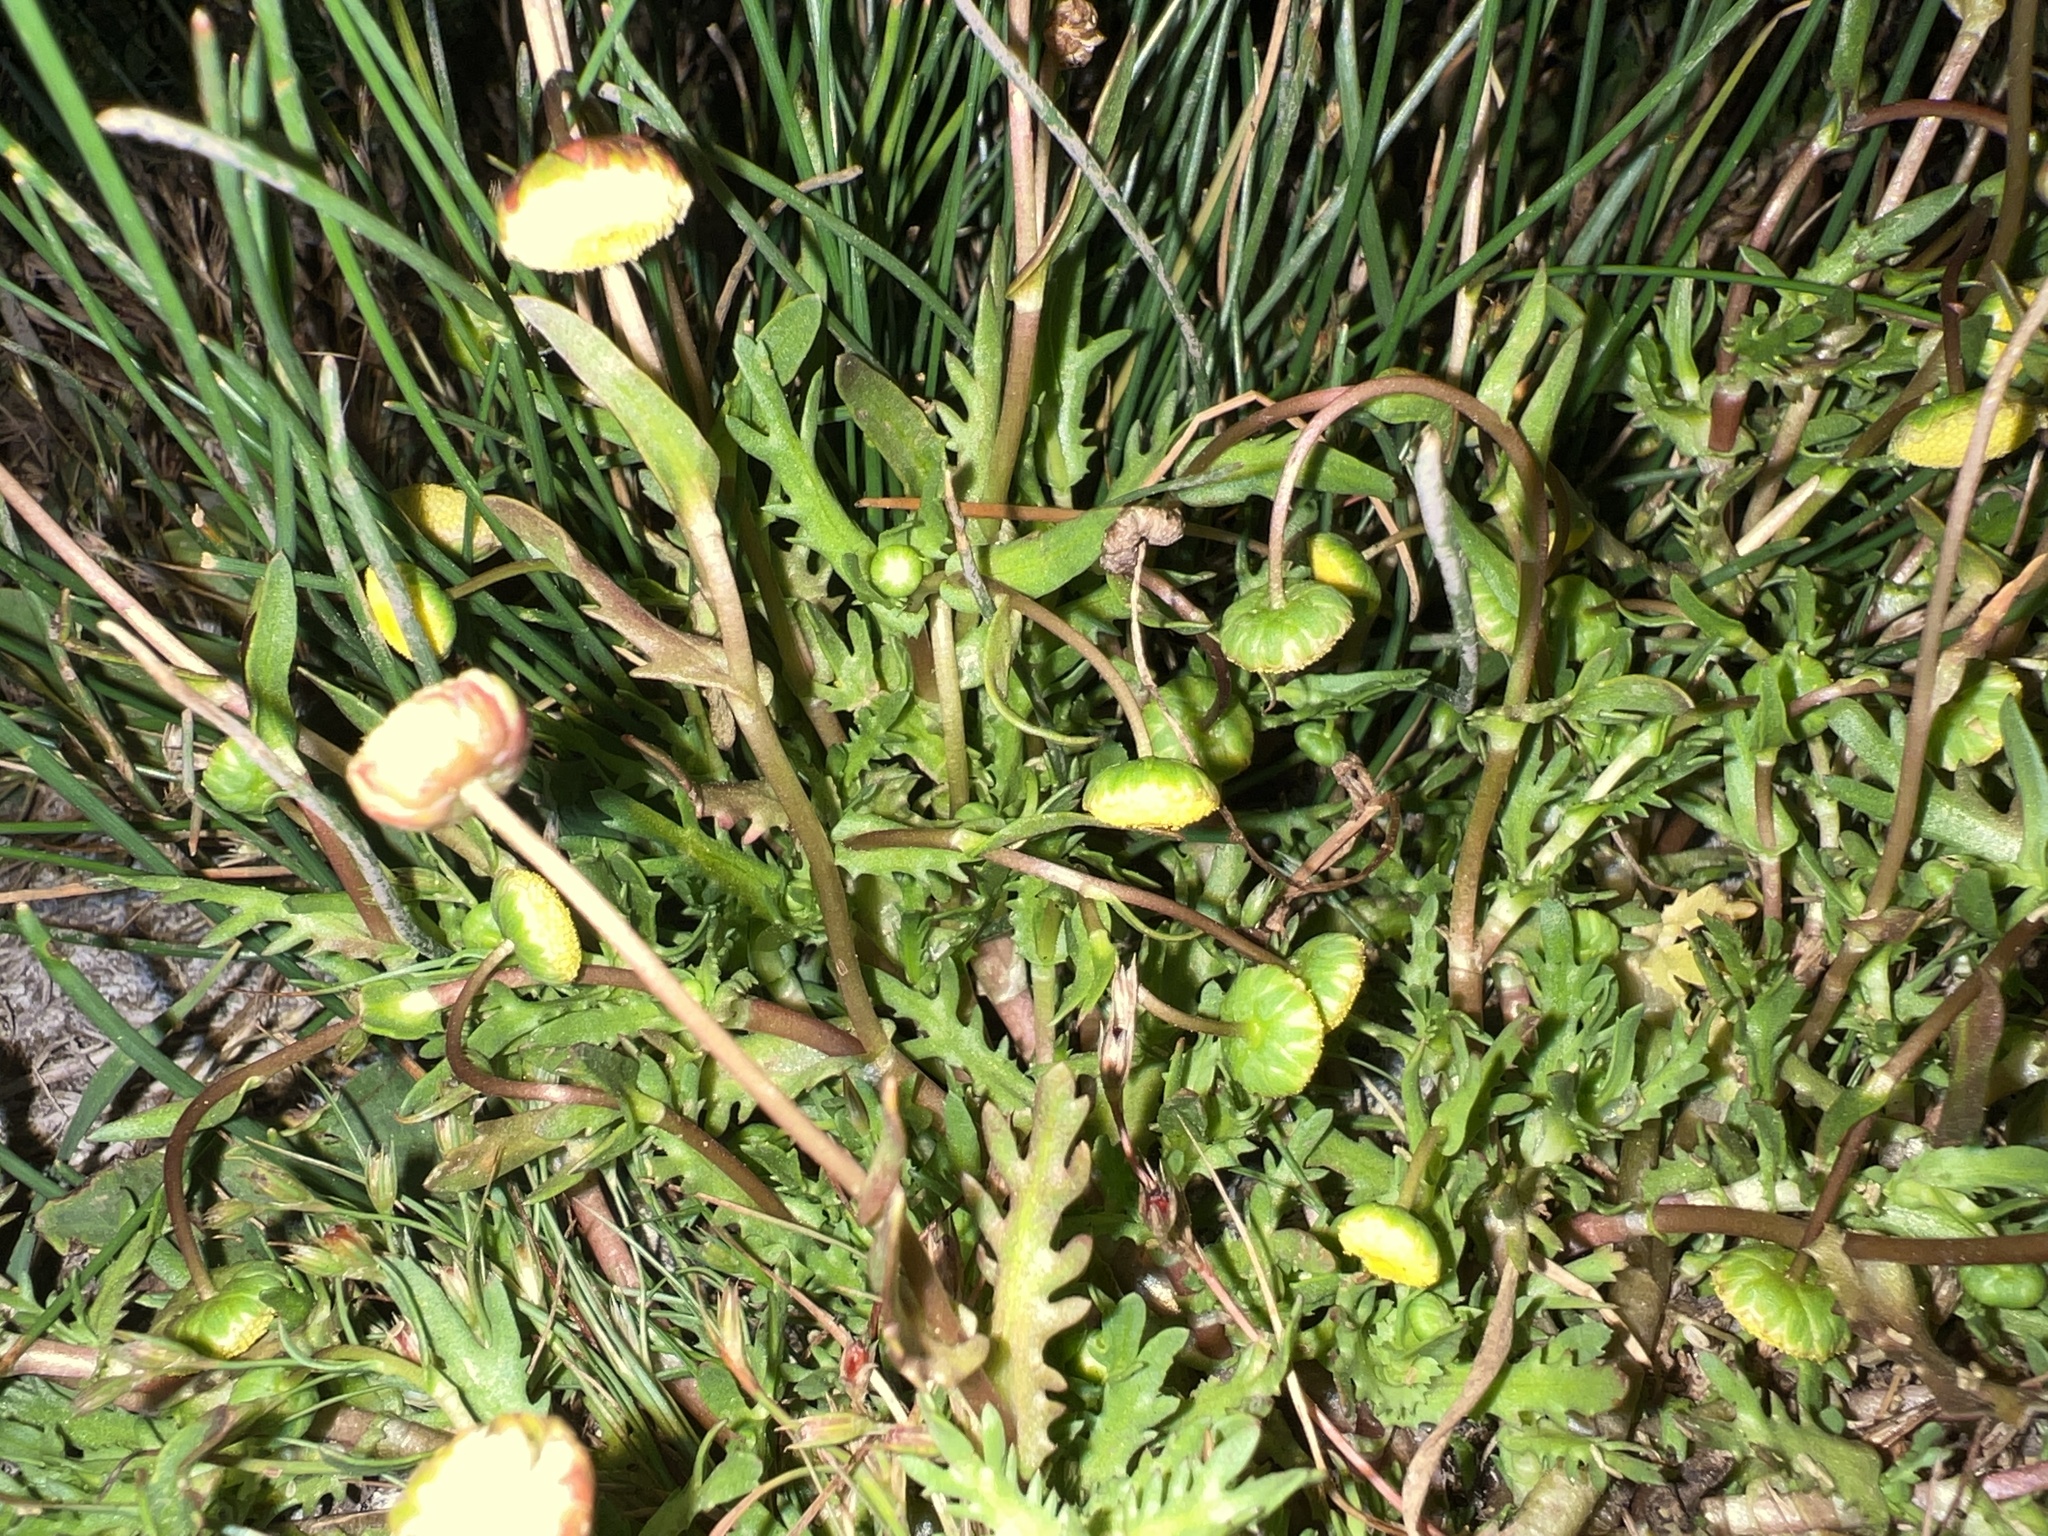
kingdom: Plantae
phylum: Tracheophyta
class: Magnoliopsida
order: Asterales
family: Asteraceae
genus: Cotula
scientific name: Cotula coronopifolia
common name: Buttonweed
